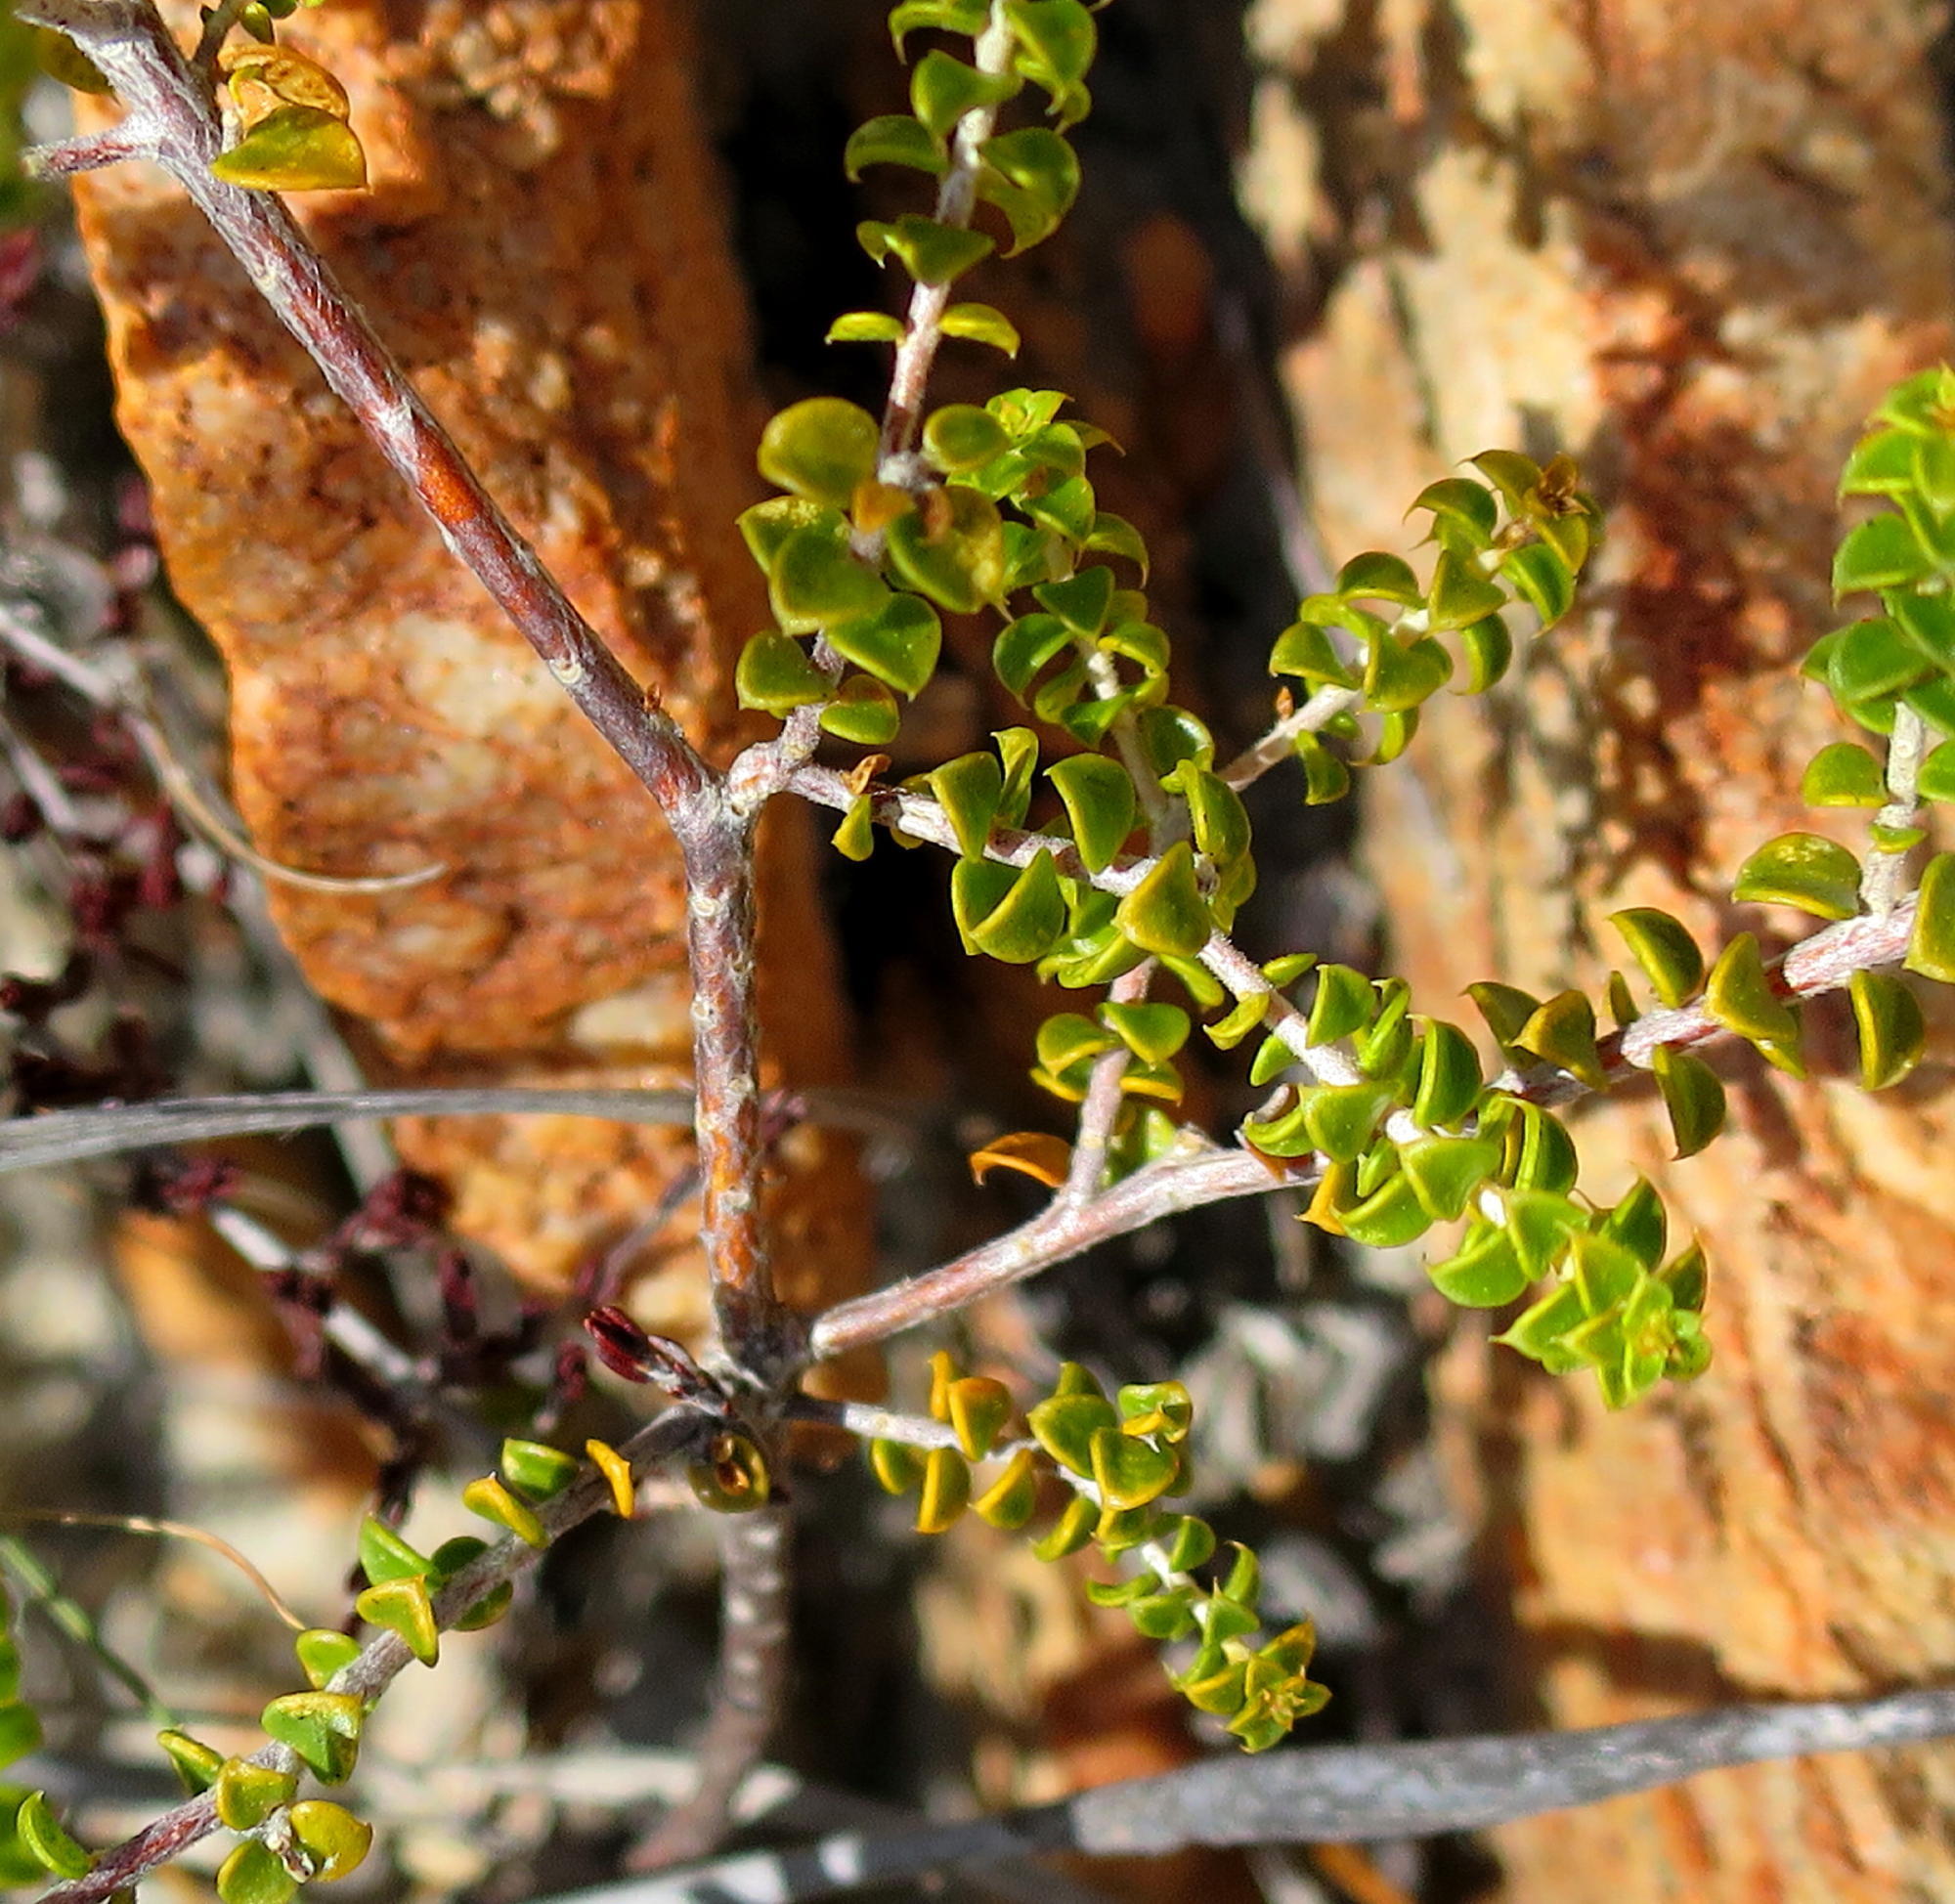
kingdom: Plantae
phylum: Tracheophyta
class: Magnoliopsida
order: Sapindales
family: Rutaceae
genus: Agathosma
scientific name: Agathosma recurvifolia
